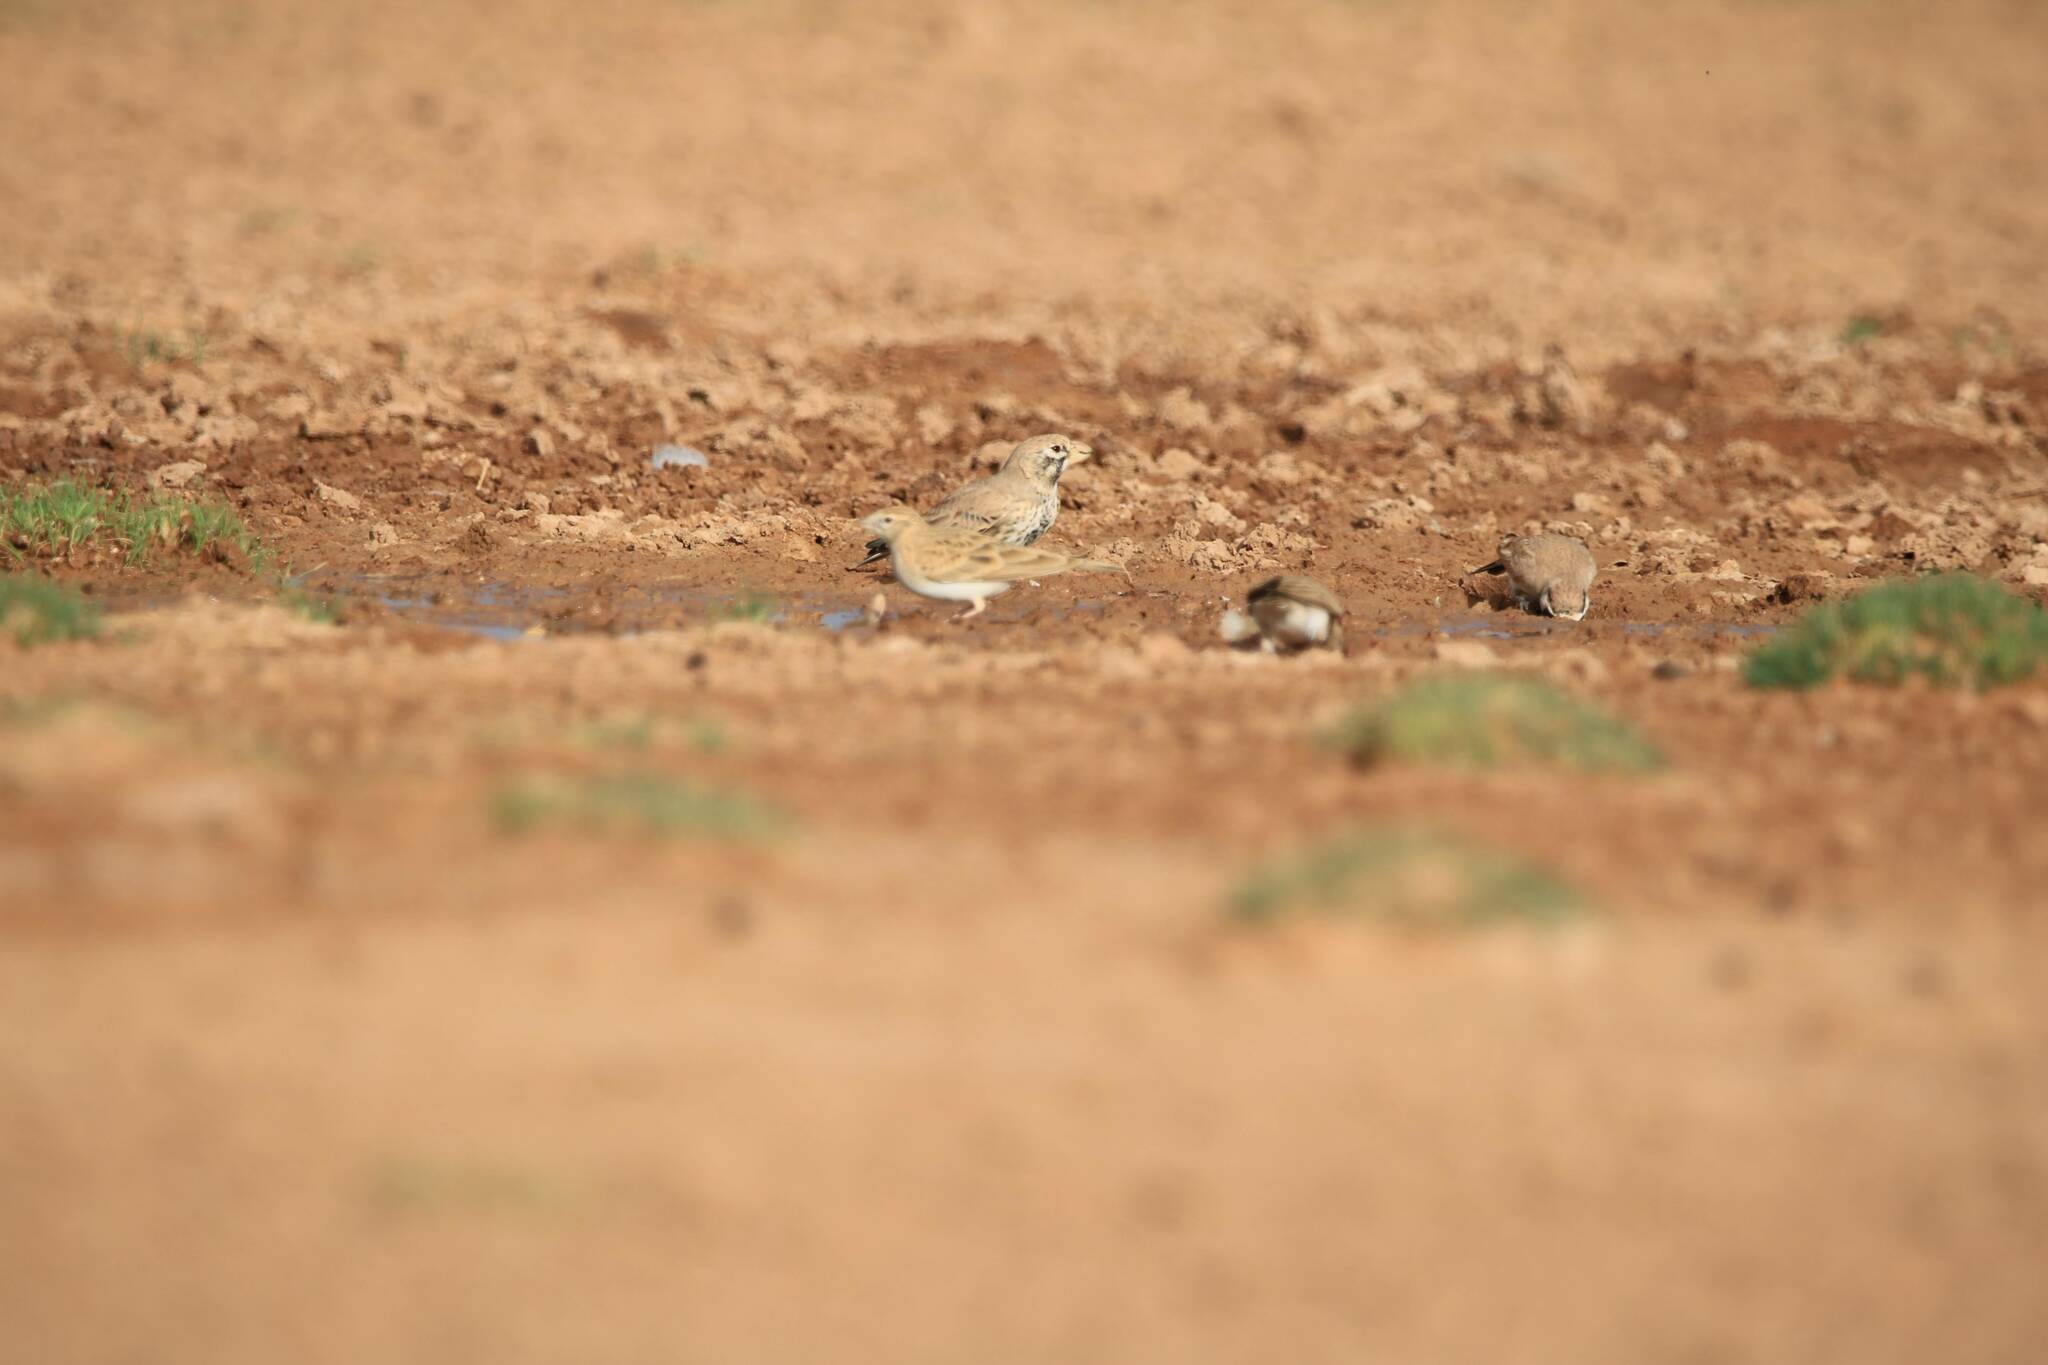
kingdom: Animalia
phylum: Chordata
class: Aves
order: Passeriformes
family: Alaudidae
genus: Calandrella
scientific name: Calandrella brachydactyla
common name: Greater short-toed lark
